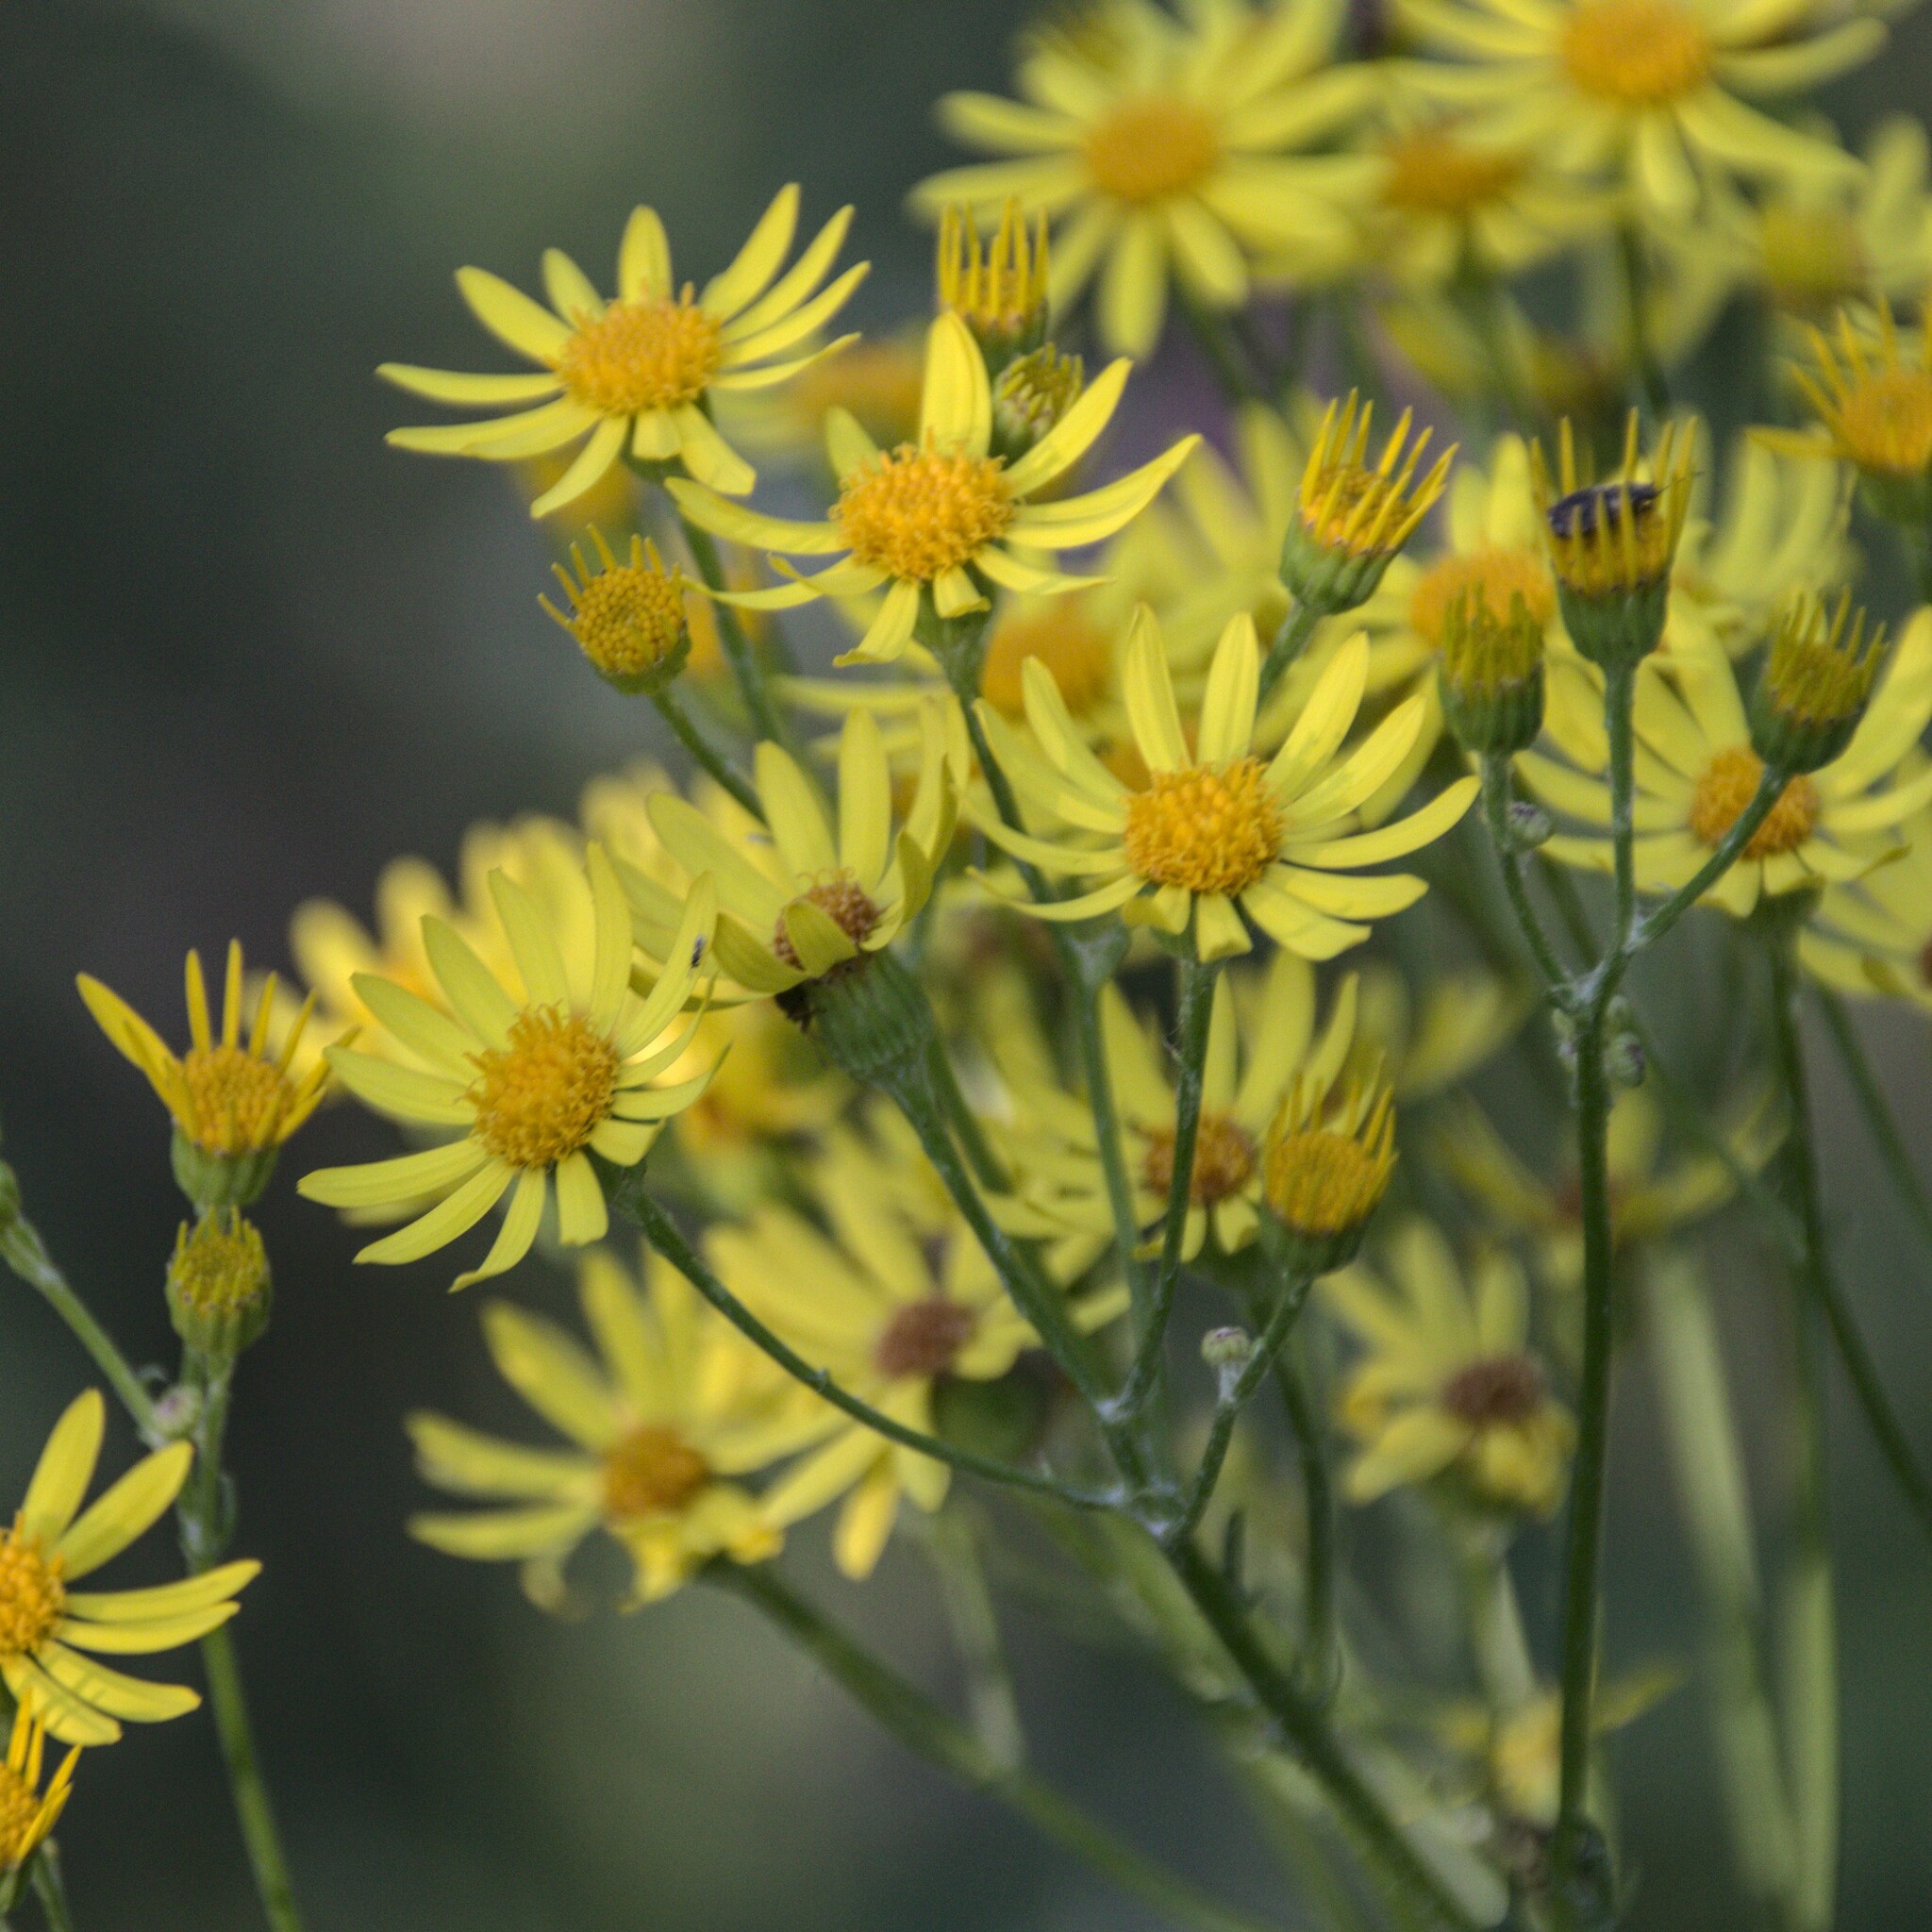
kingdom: Plantae
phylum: Tracheophyta
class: Magnoliopsida
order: Asterales
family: Asteraceae
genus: Jacobaea
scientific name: Jacobaea vulgaris
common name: Stinking willie
